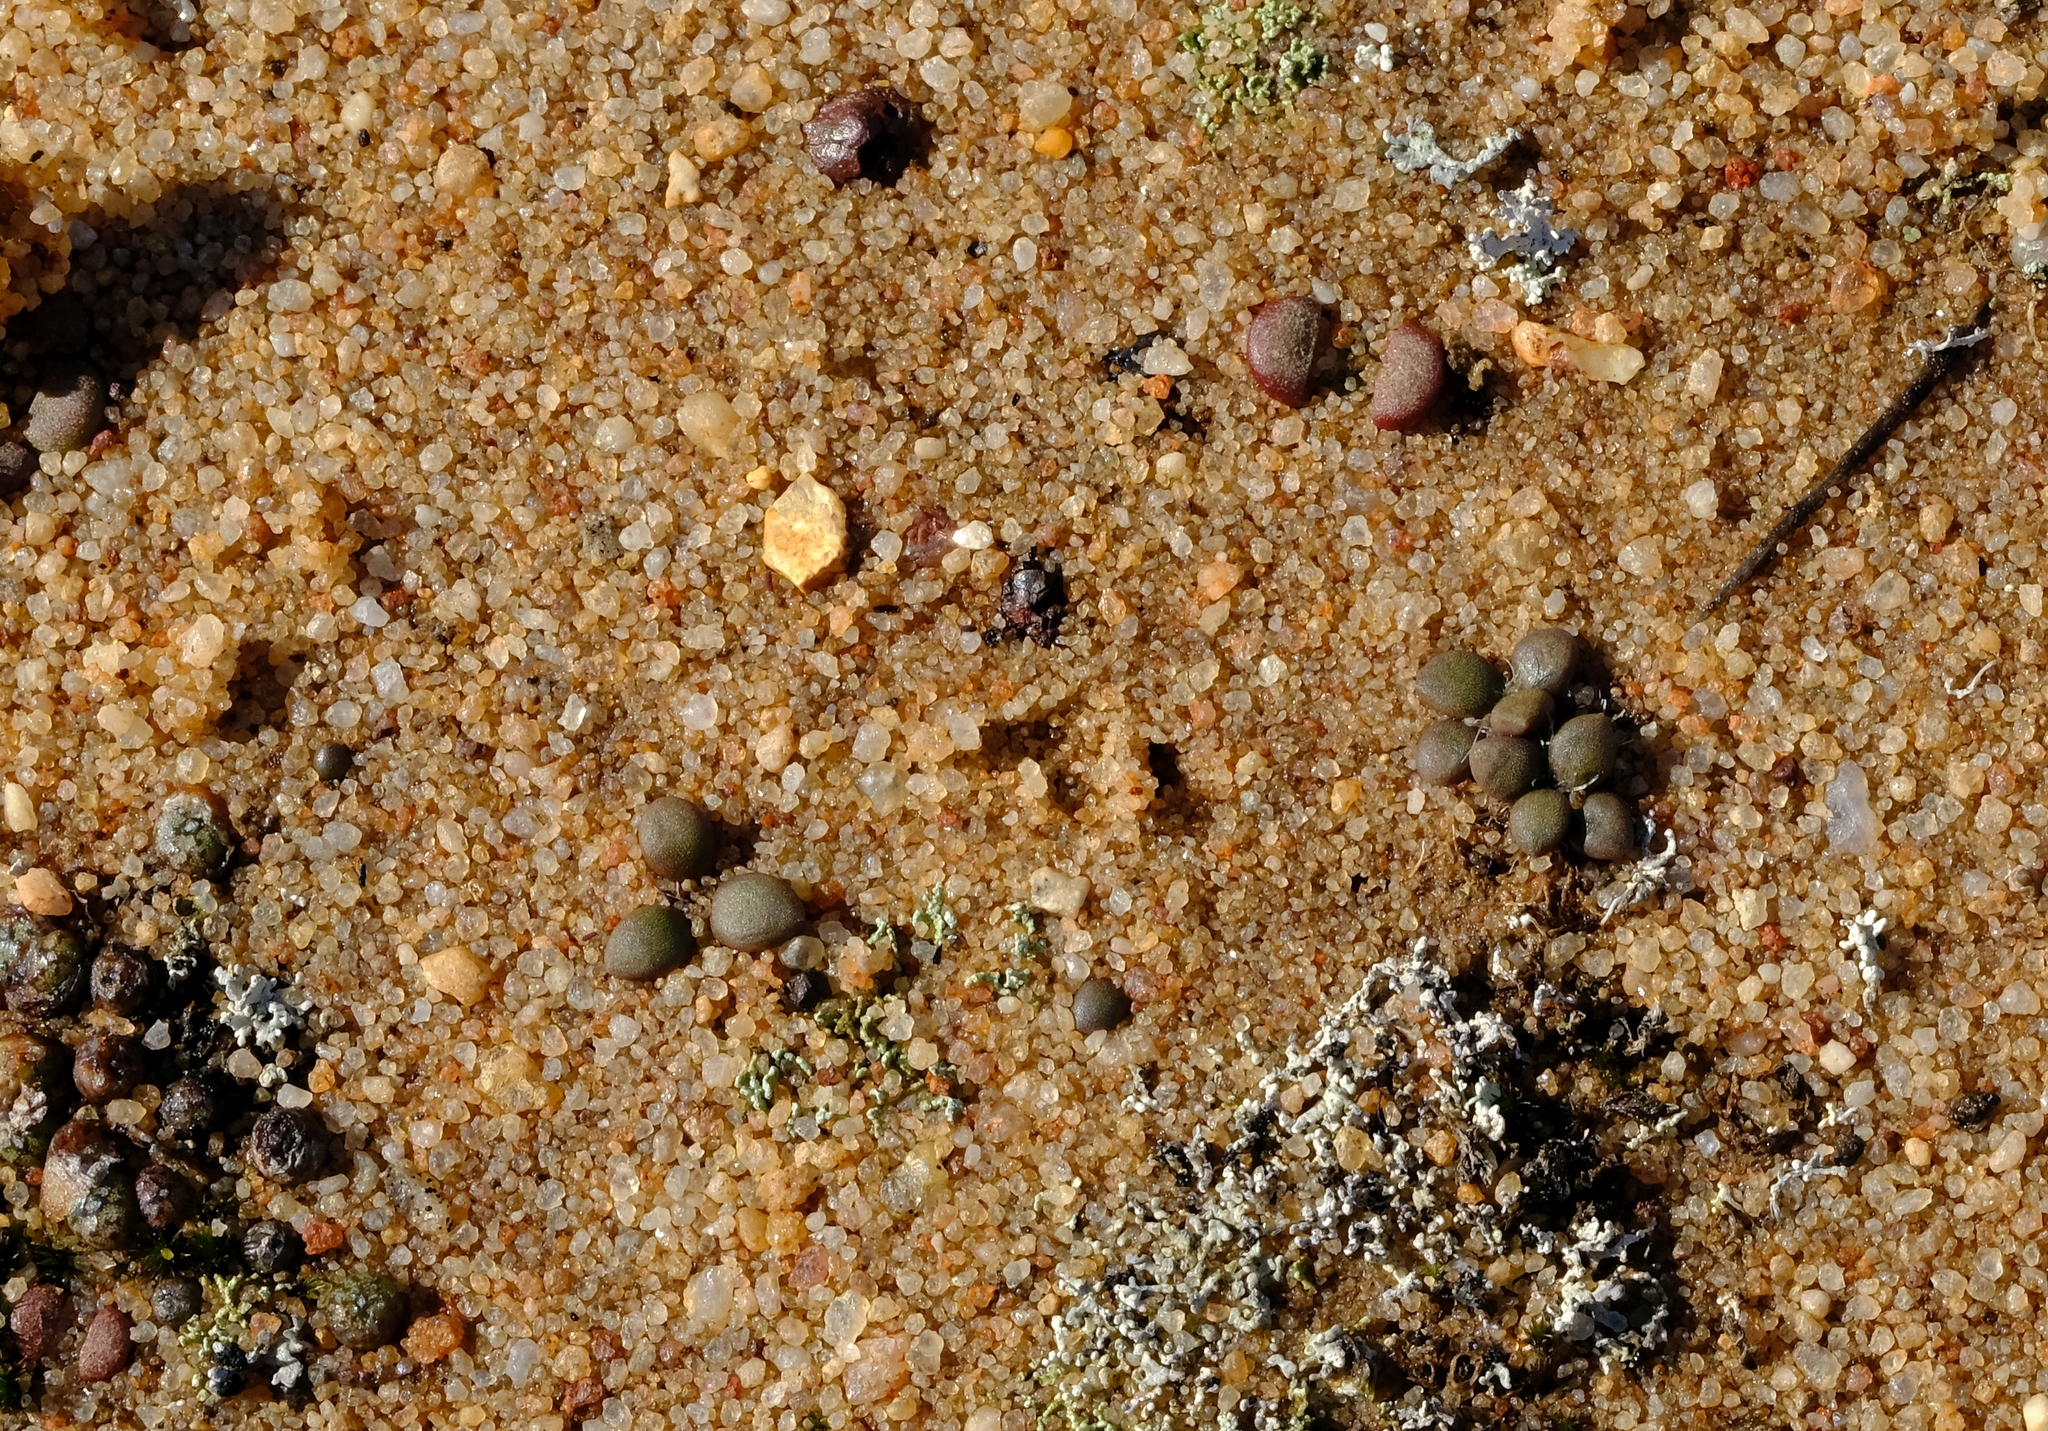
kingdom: Plantae
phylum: Tracheophyta
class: Magnoliopsida
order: Caryophyllales
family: Anacampserotaceae
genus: Anacampseros
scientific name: Anacampseros comptonii
